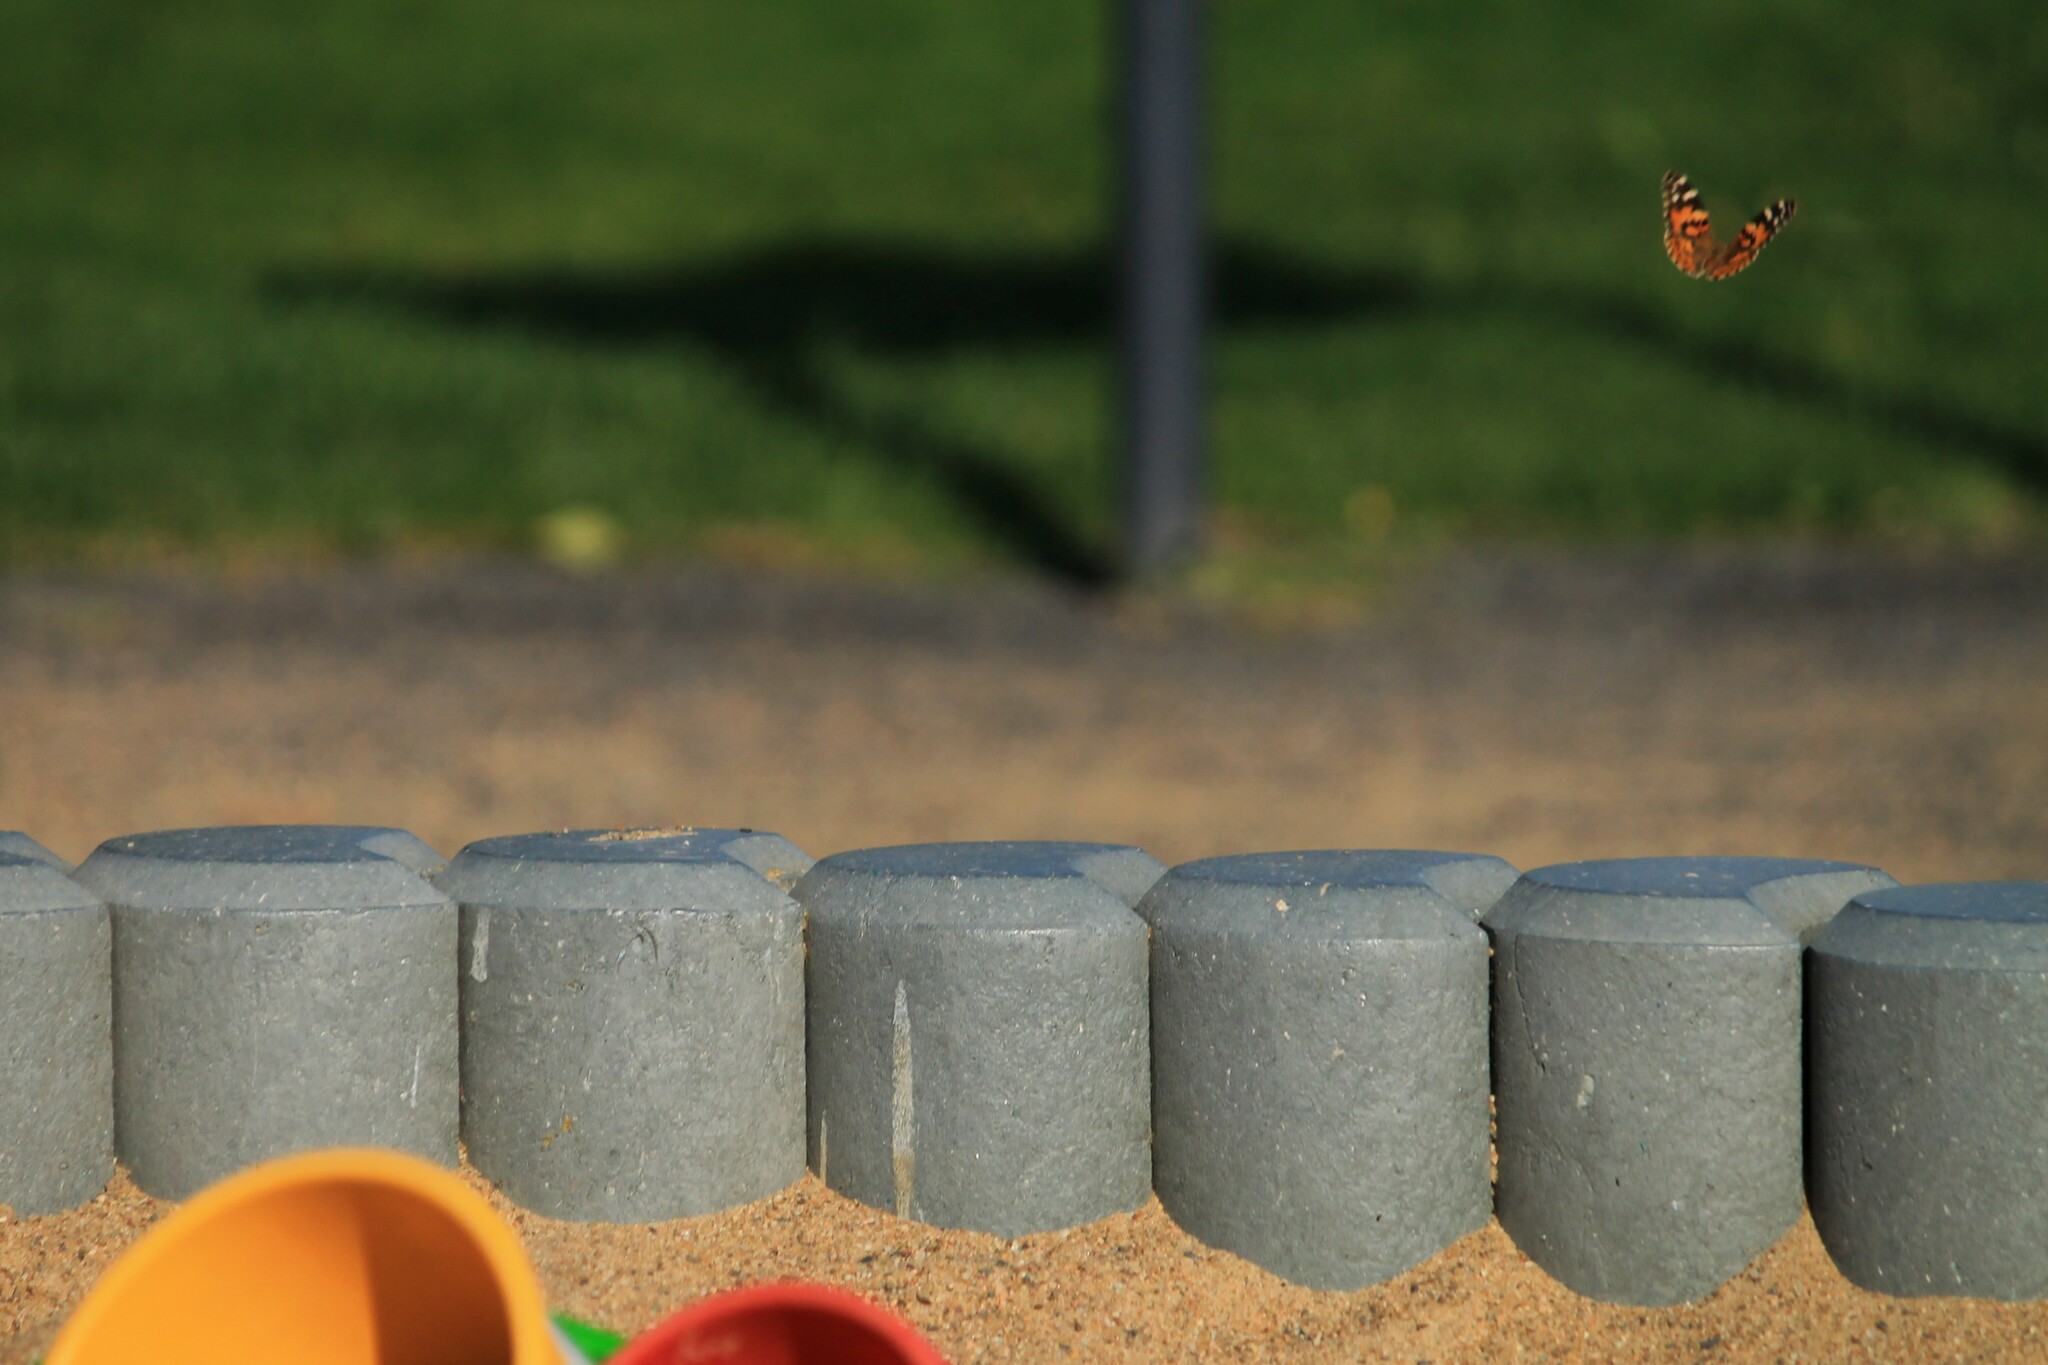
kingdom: Animalia
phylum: Arthropoda
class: Insecta
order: Lepidoptera
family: Nymphalidae
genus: Vanessa
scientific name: Vanessa cardui
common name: Painted lady
